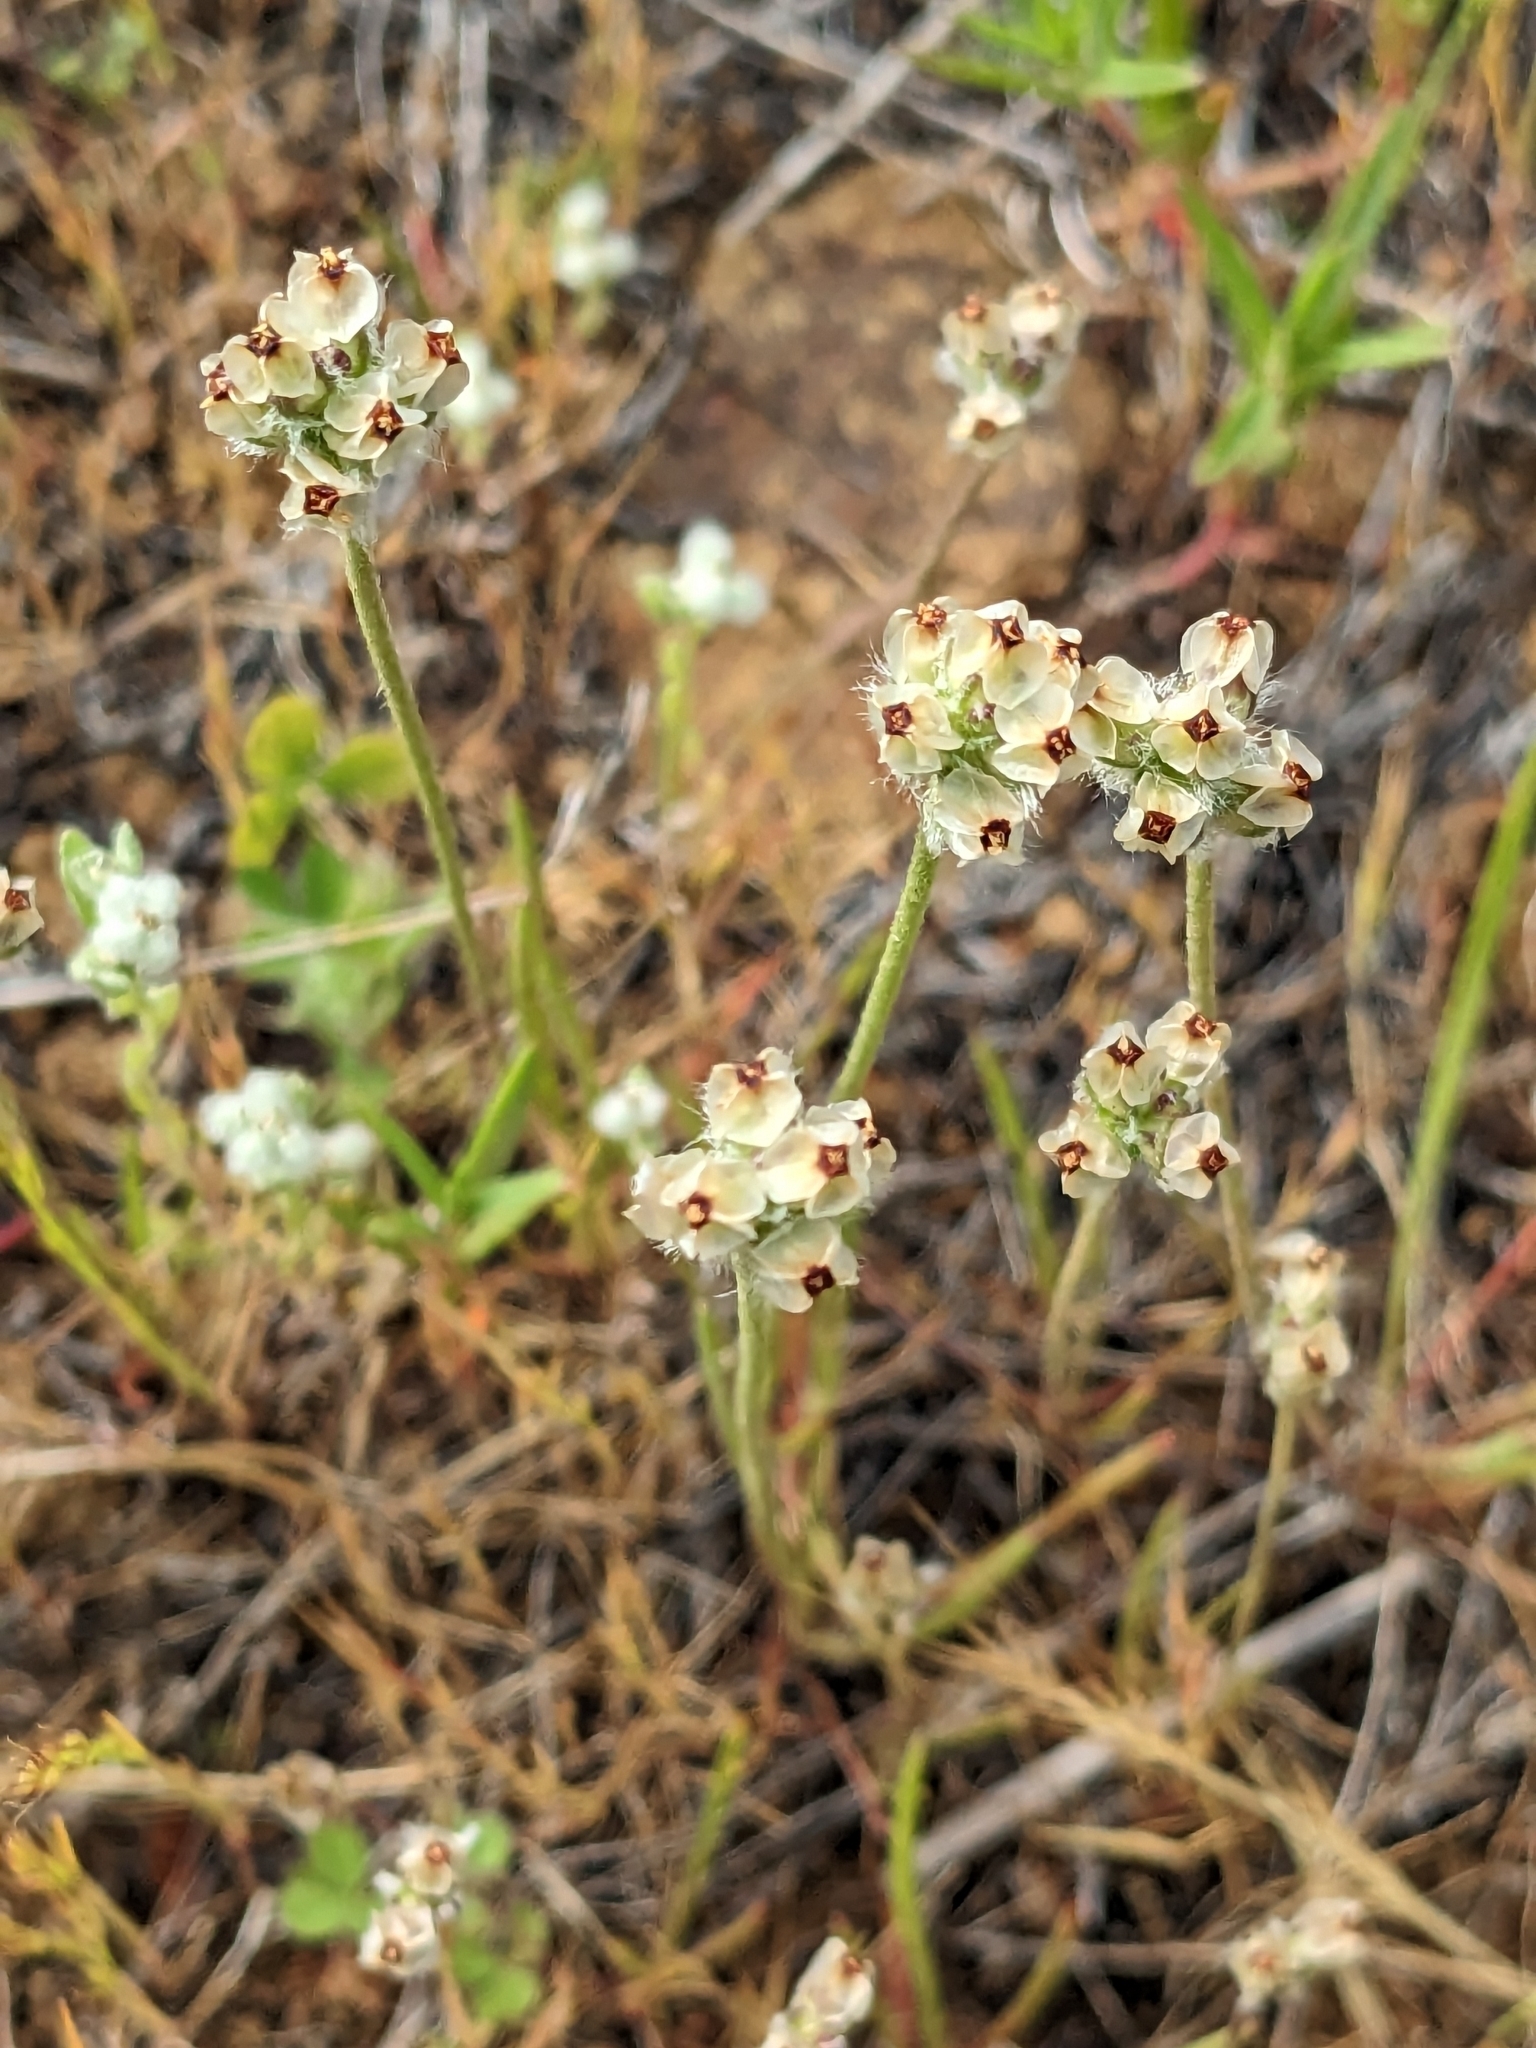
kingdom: Plantae
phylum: Tracheophyta
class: Magnoliopsida
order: Lamiales
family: Plantaginaceae
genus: Plantago
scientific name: Plantago erecta
